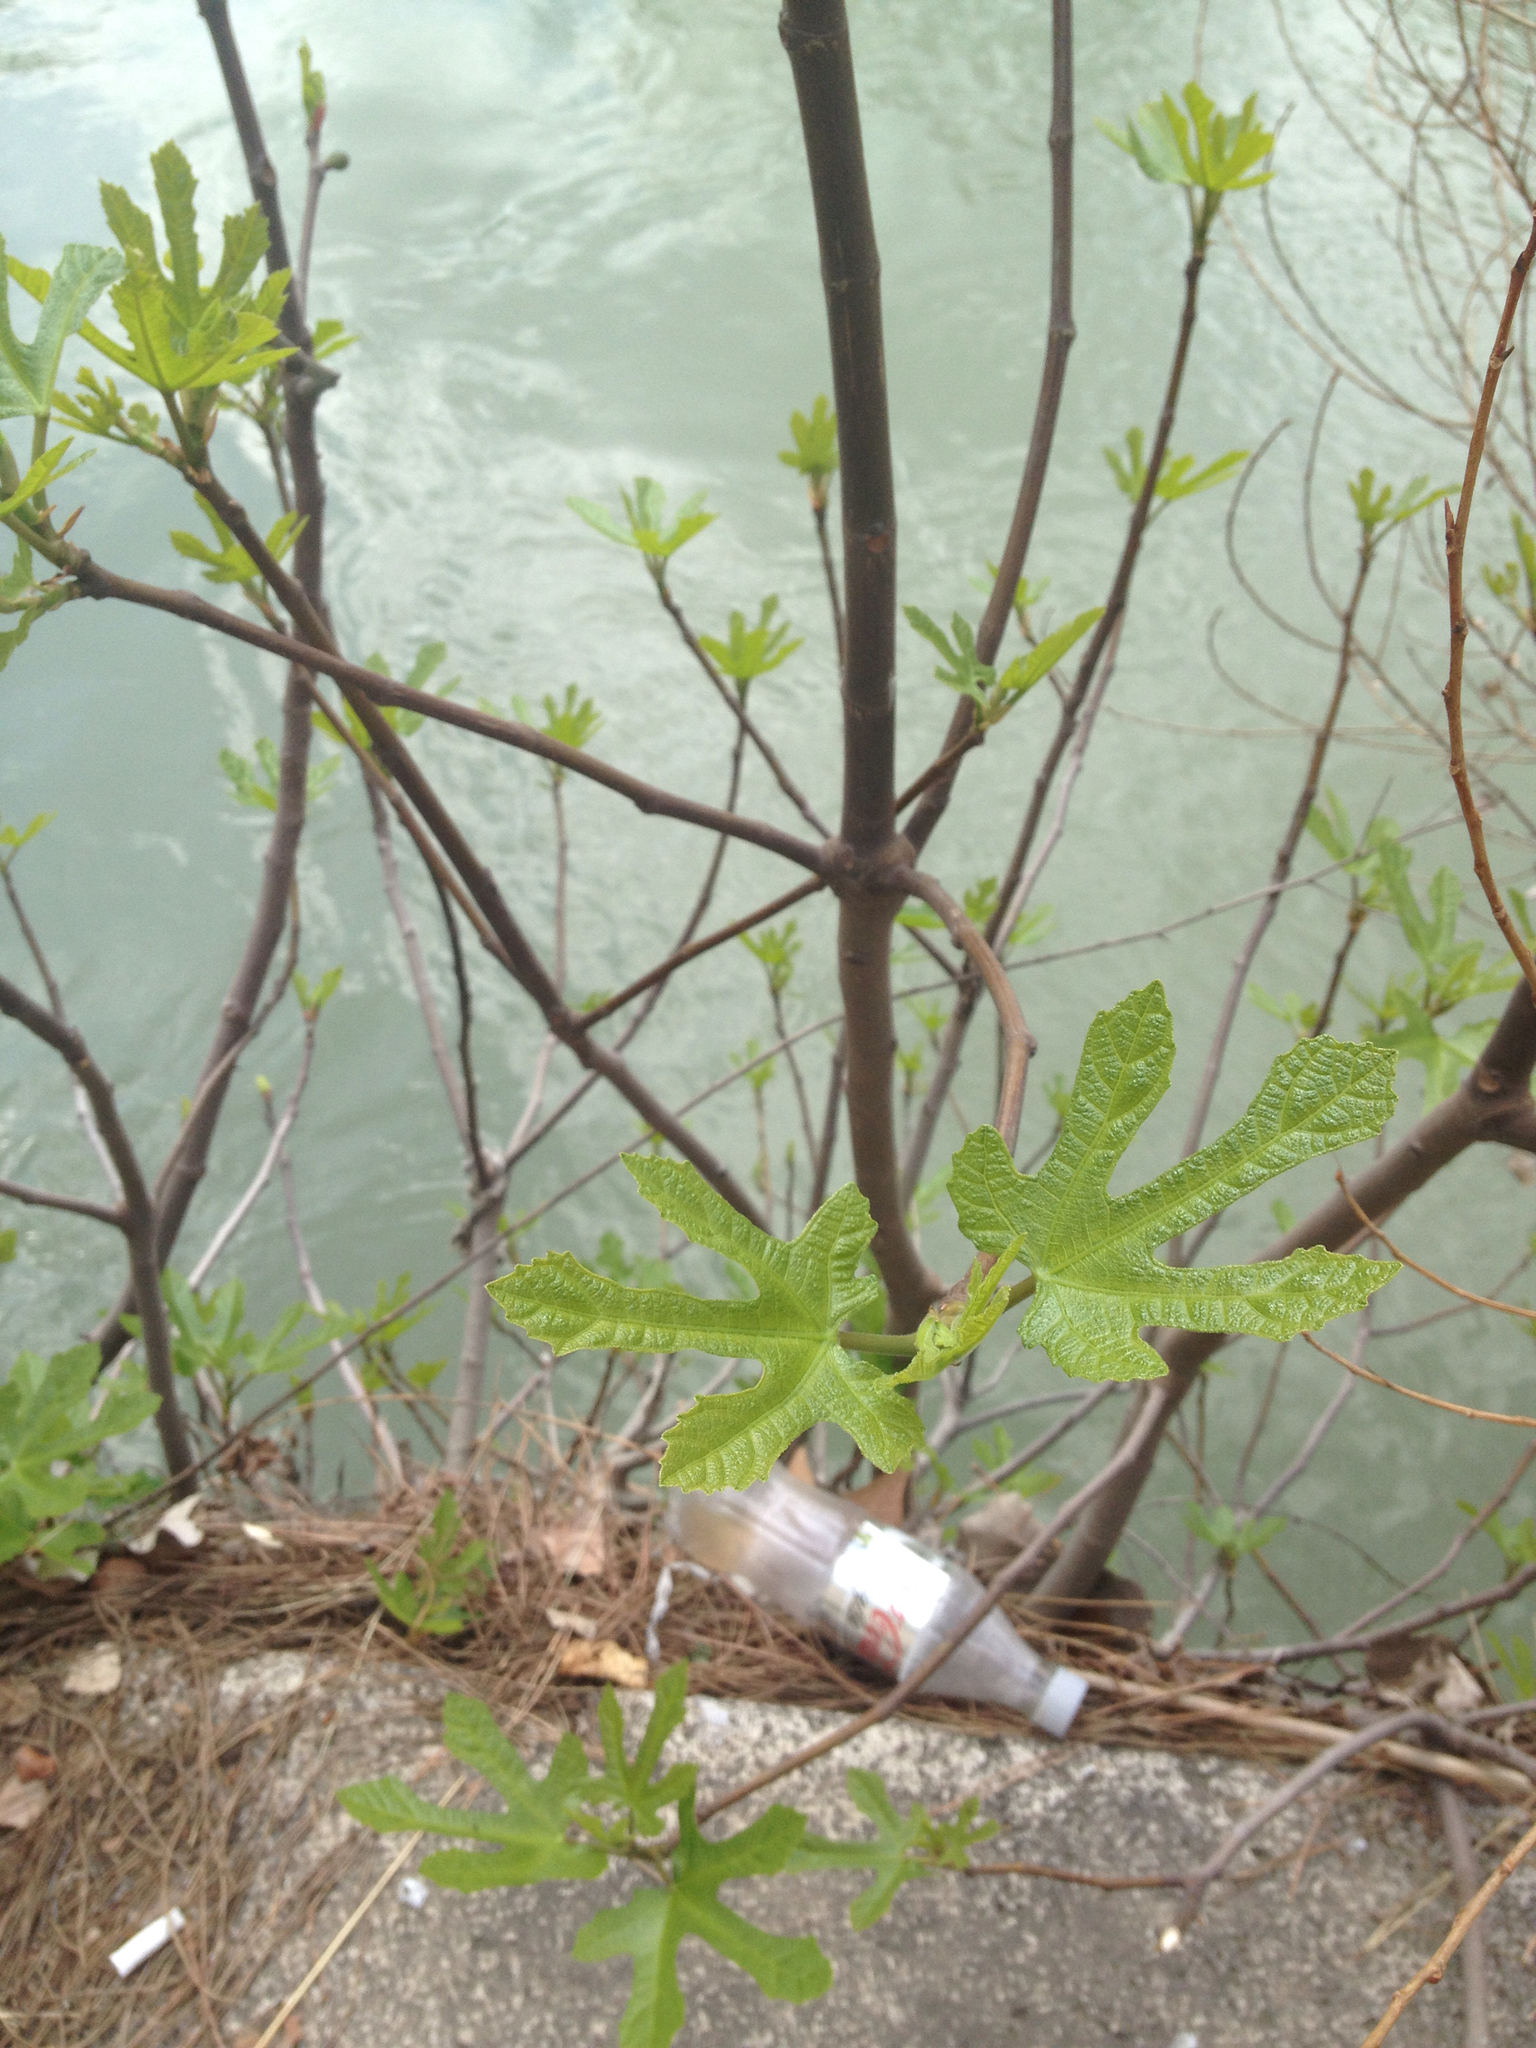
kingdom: Plantae
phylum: Tracheophyta
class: Magnoliopsida
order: Rosales
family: Moraceae
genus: Ficus
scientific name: Ficus carica
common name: Fig
